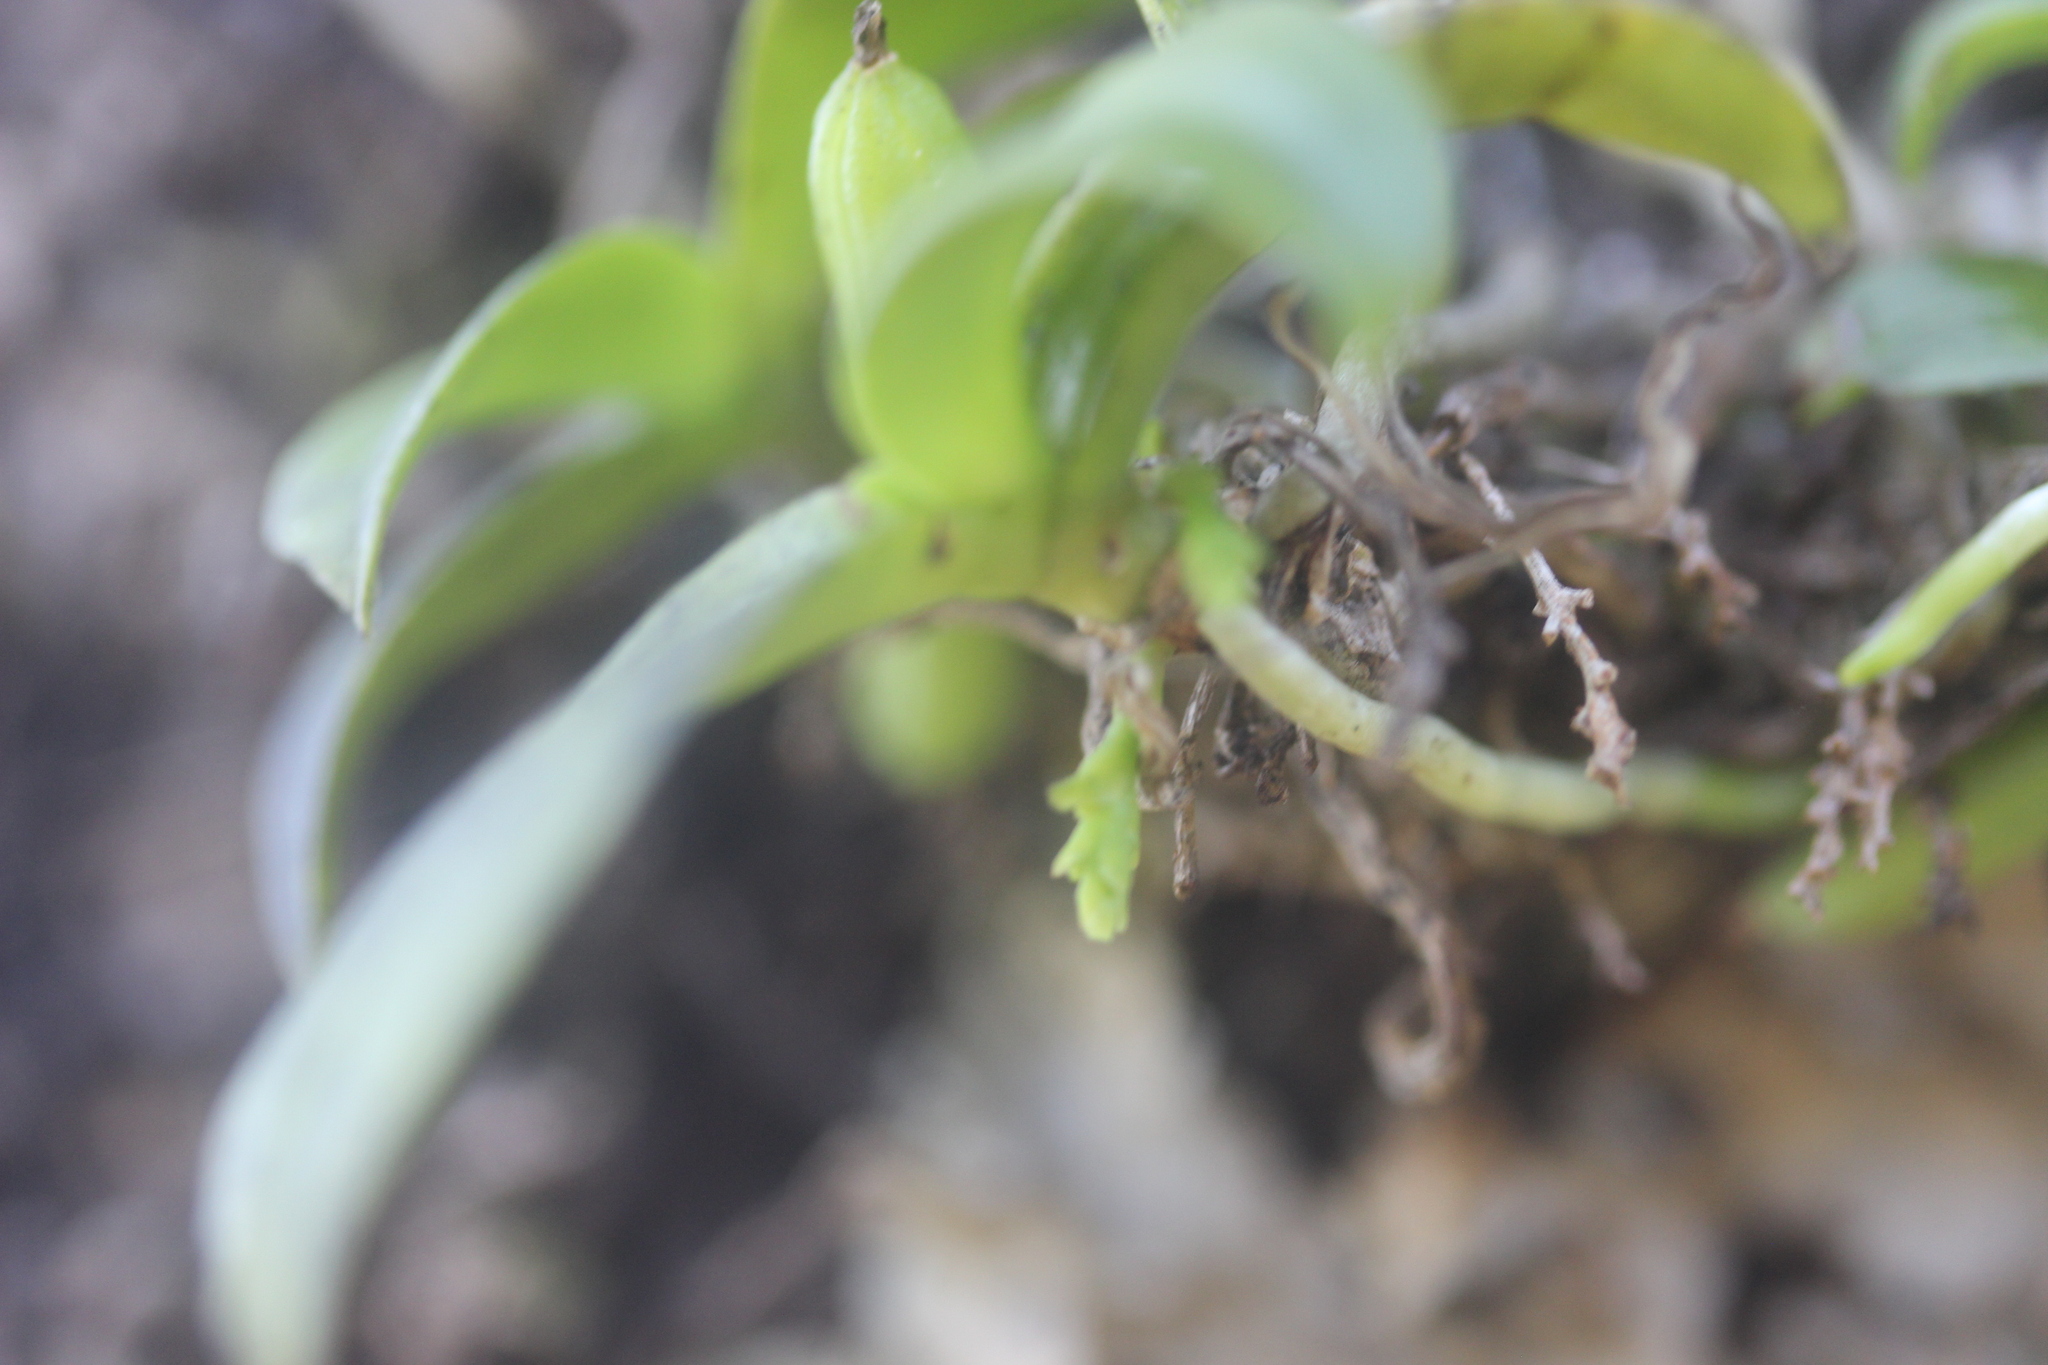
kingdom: Plantae
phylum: Tracheophyta
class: Liliopsida
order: Asparagales
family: Orchidaceae
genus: Drymoanthus
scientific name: Drymoanthus adversus
